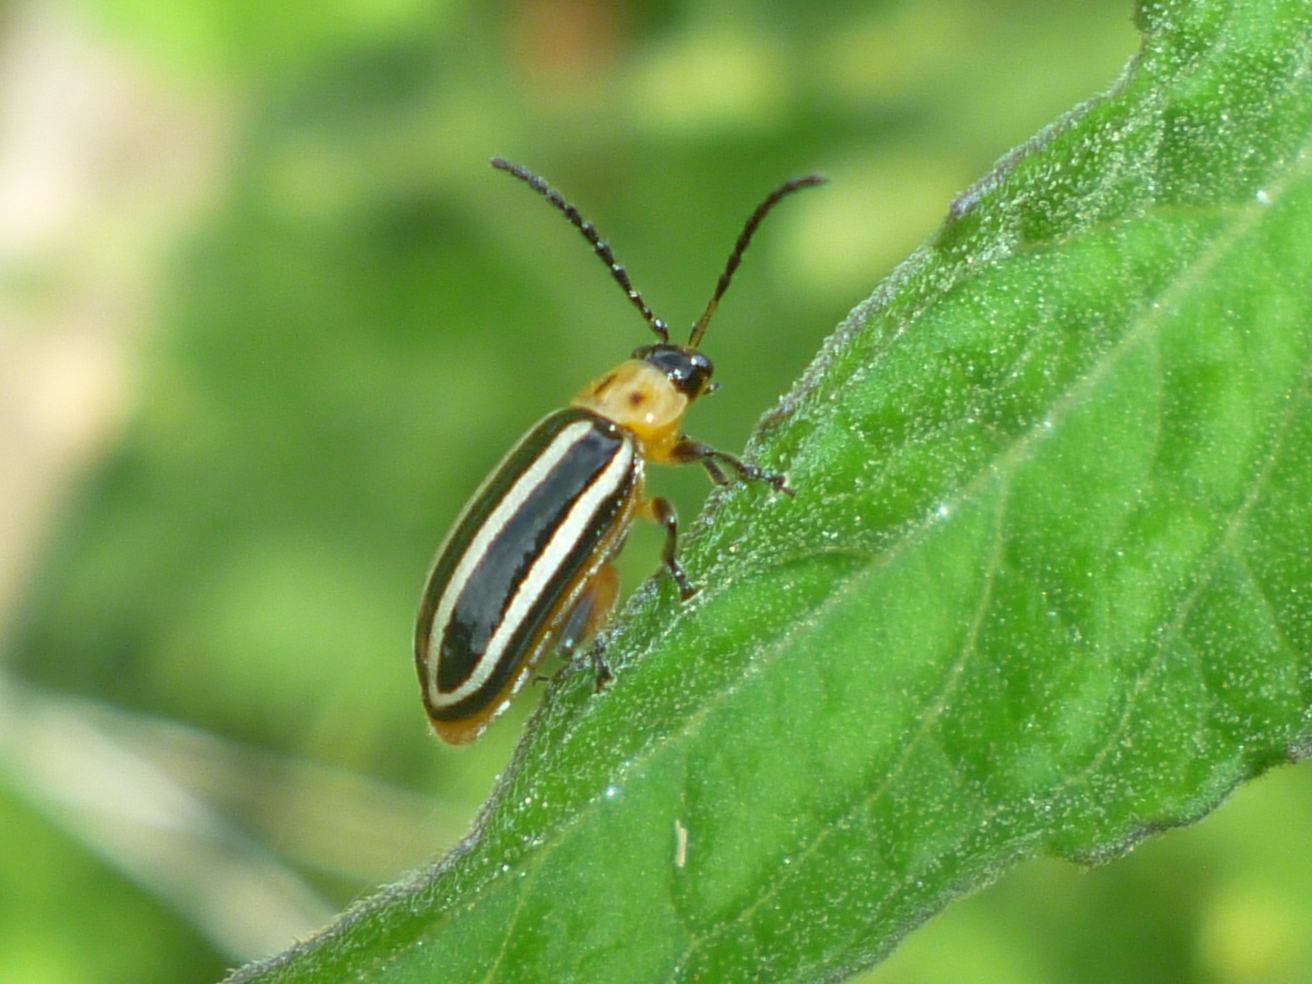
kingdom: Animalia
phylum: Arthropoda
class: Insecta
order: Coleoptera
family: Chrysomelidae
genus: Disonycha
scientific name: Disonycha glabrata
